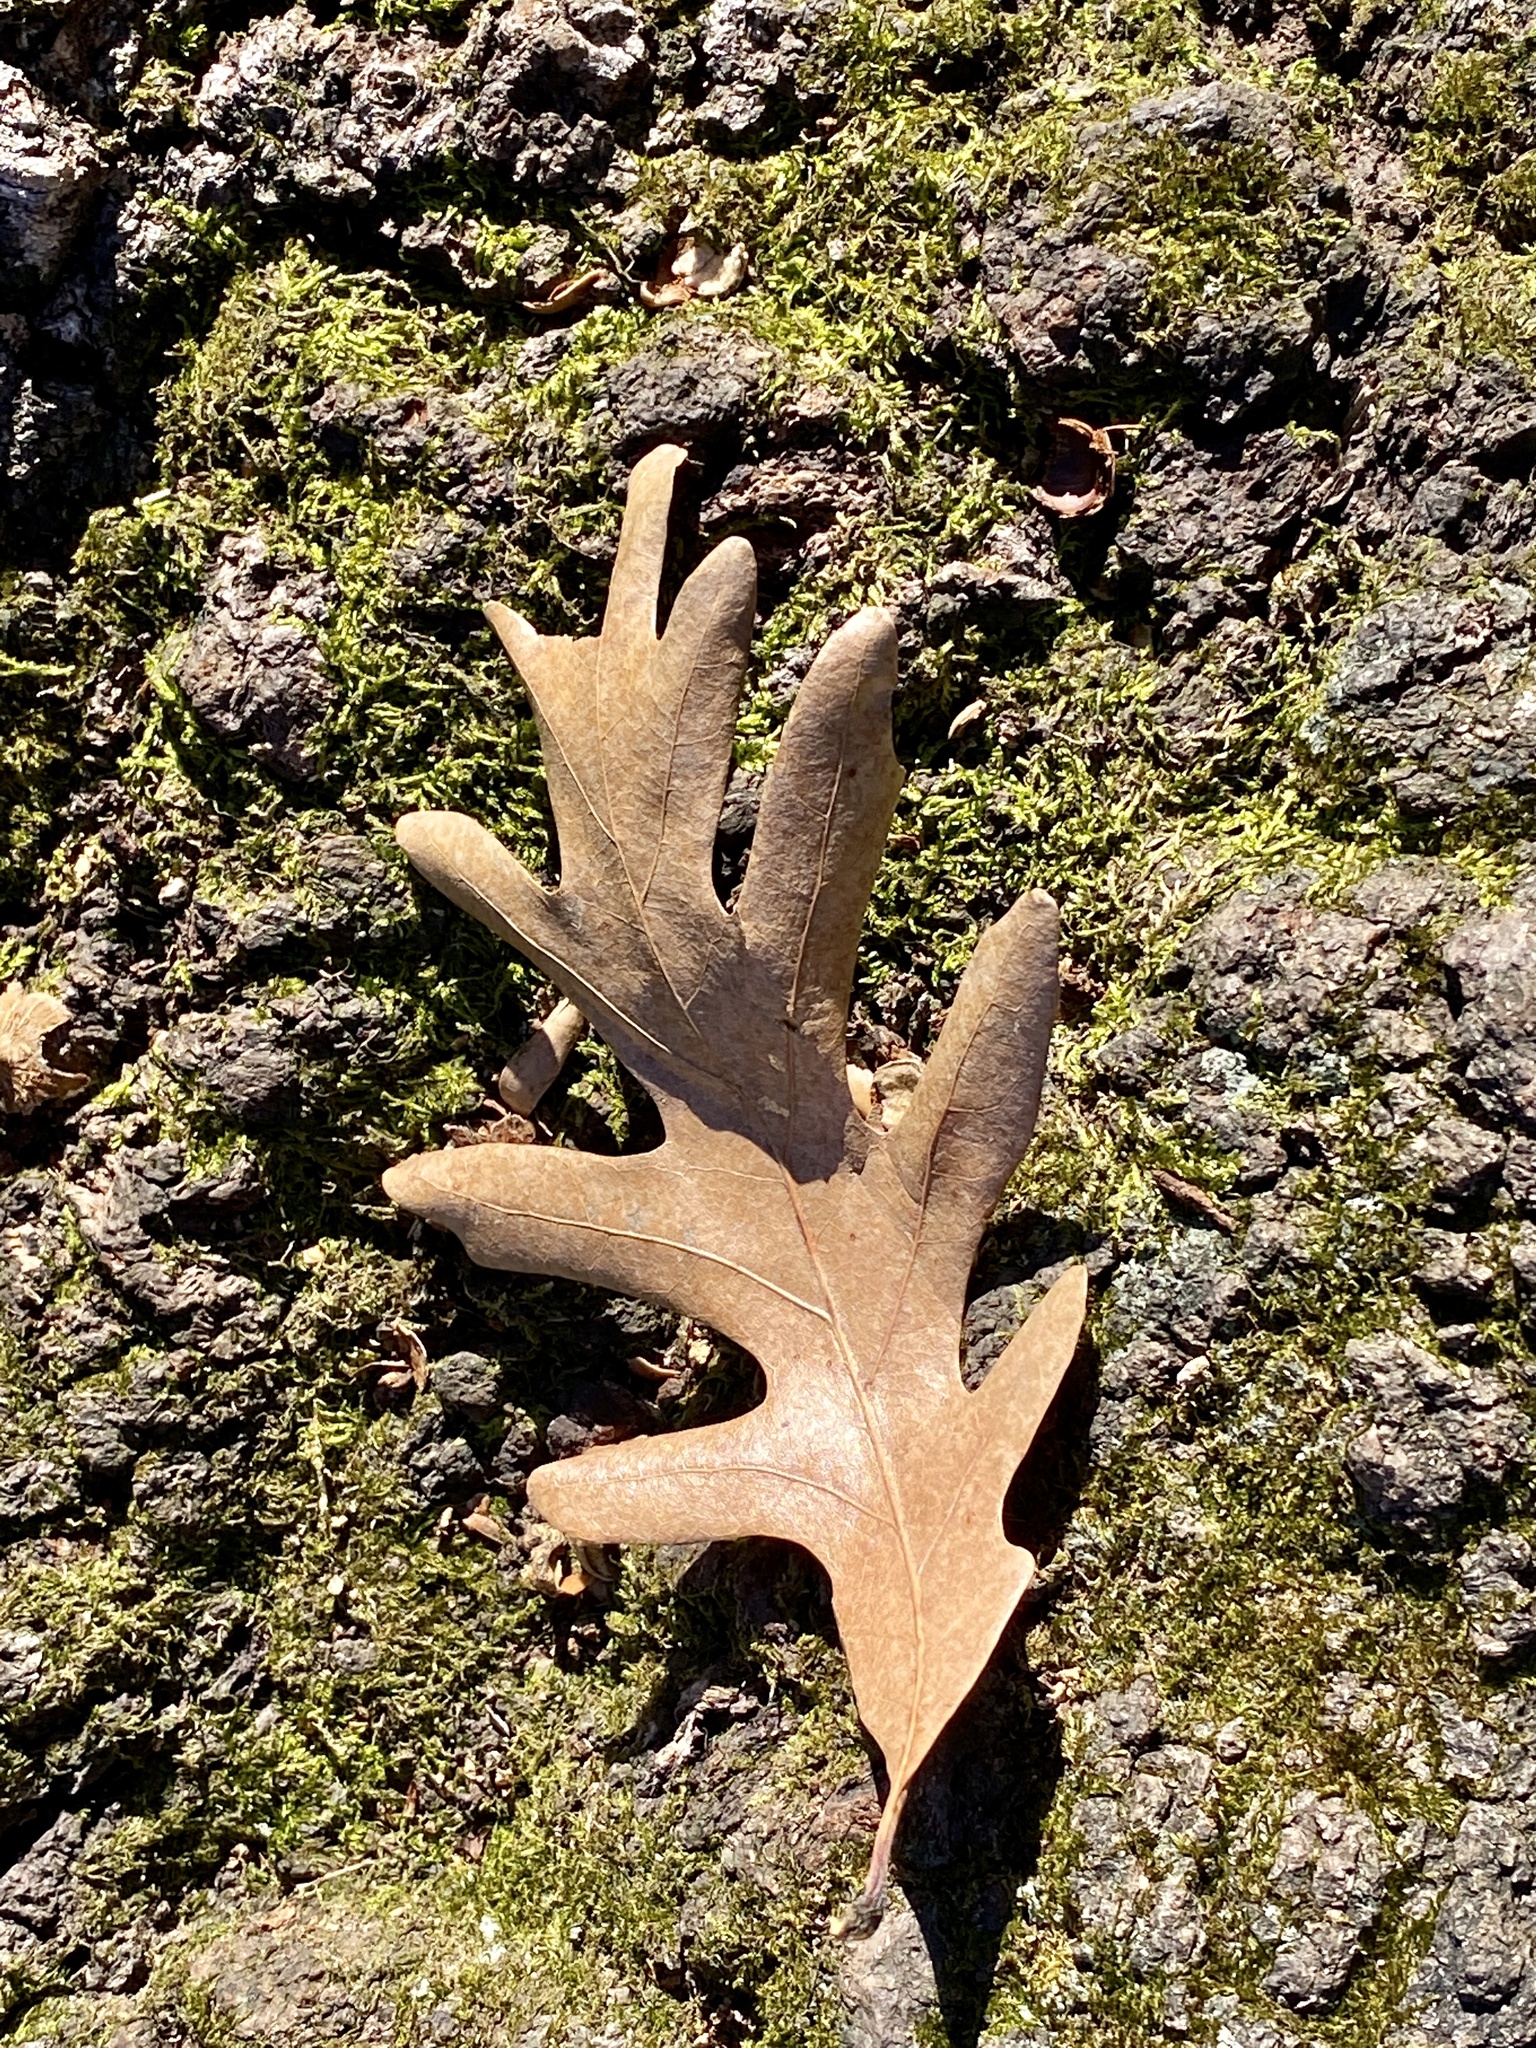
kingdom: Plantae
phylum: Tracheophyta
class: Magnoliopsida
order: Fagales
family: Fagaceae
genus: Quercus
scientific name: Quercus alba
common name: White oak
